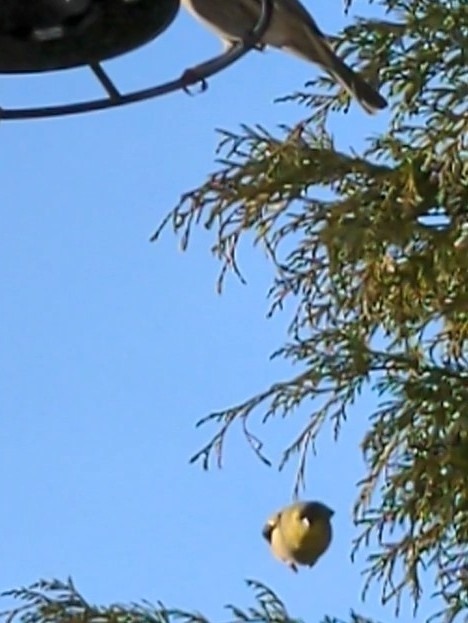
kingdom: Animalia
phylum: Chordata
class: Aves
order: Passeriformes
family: Fringillidae
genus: Spinus
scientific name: Spinus tristis
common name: American goldfinch
